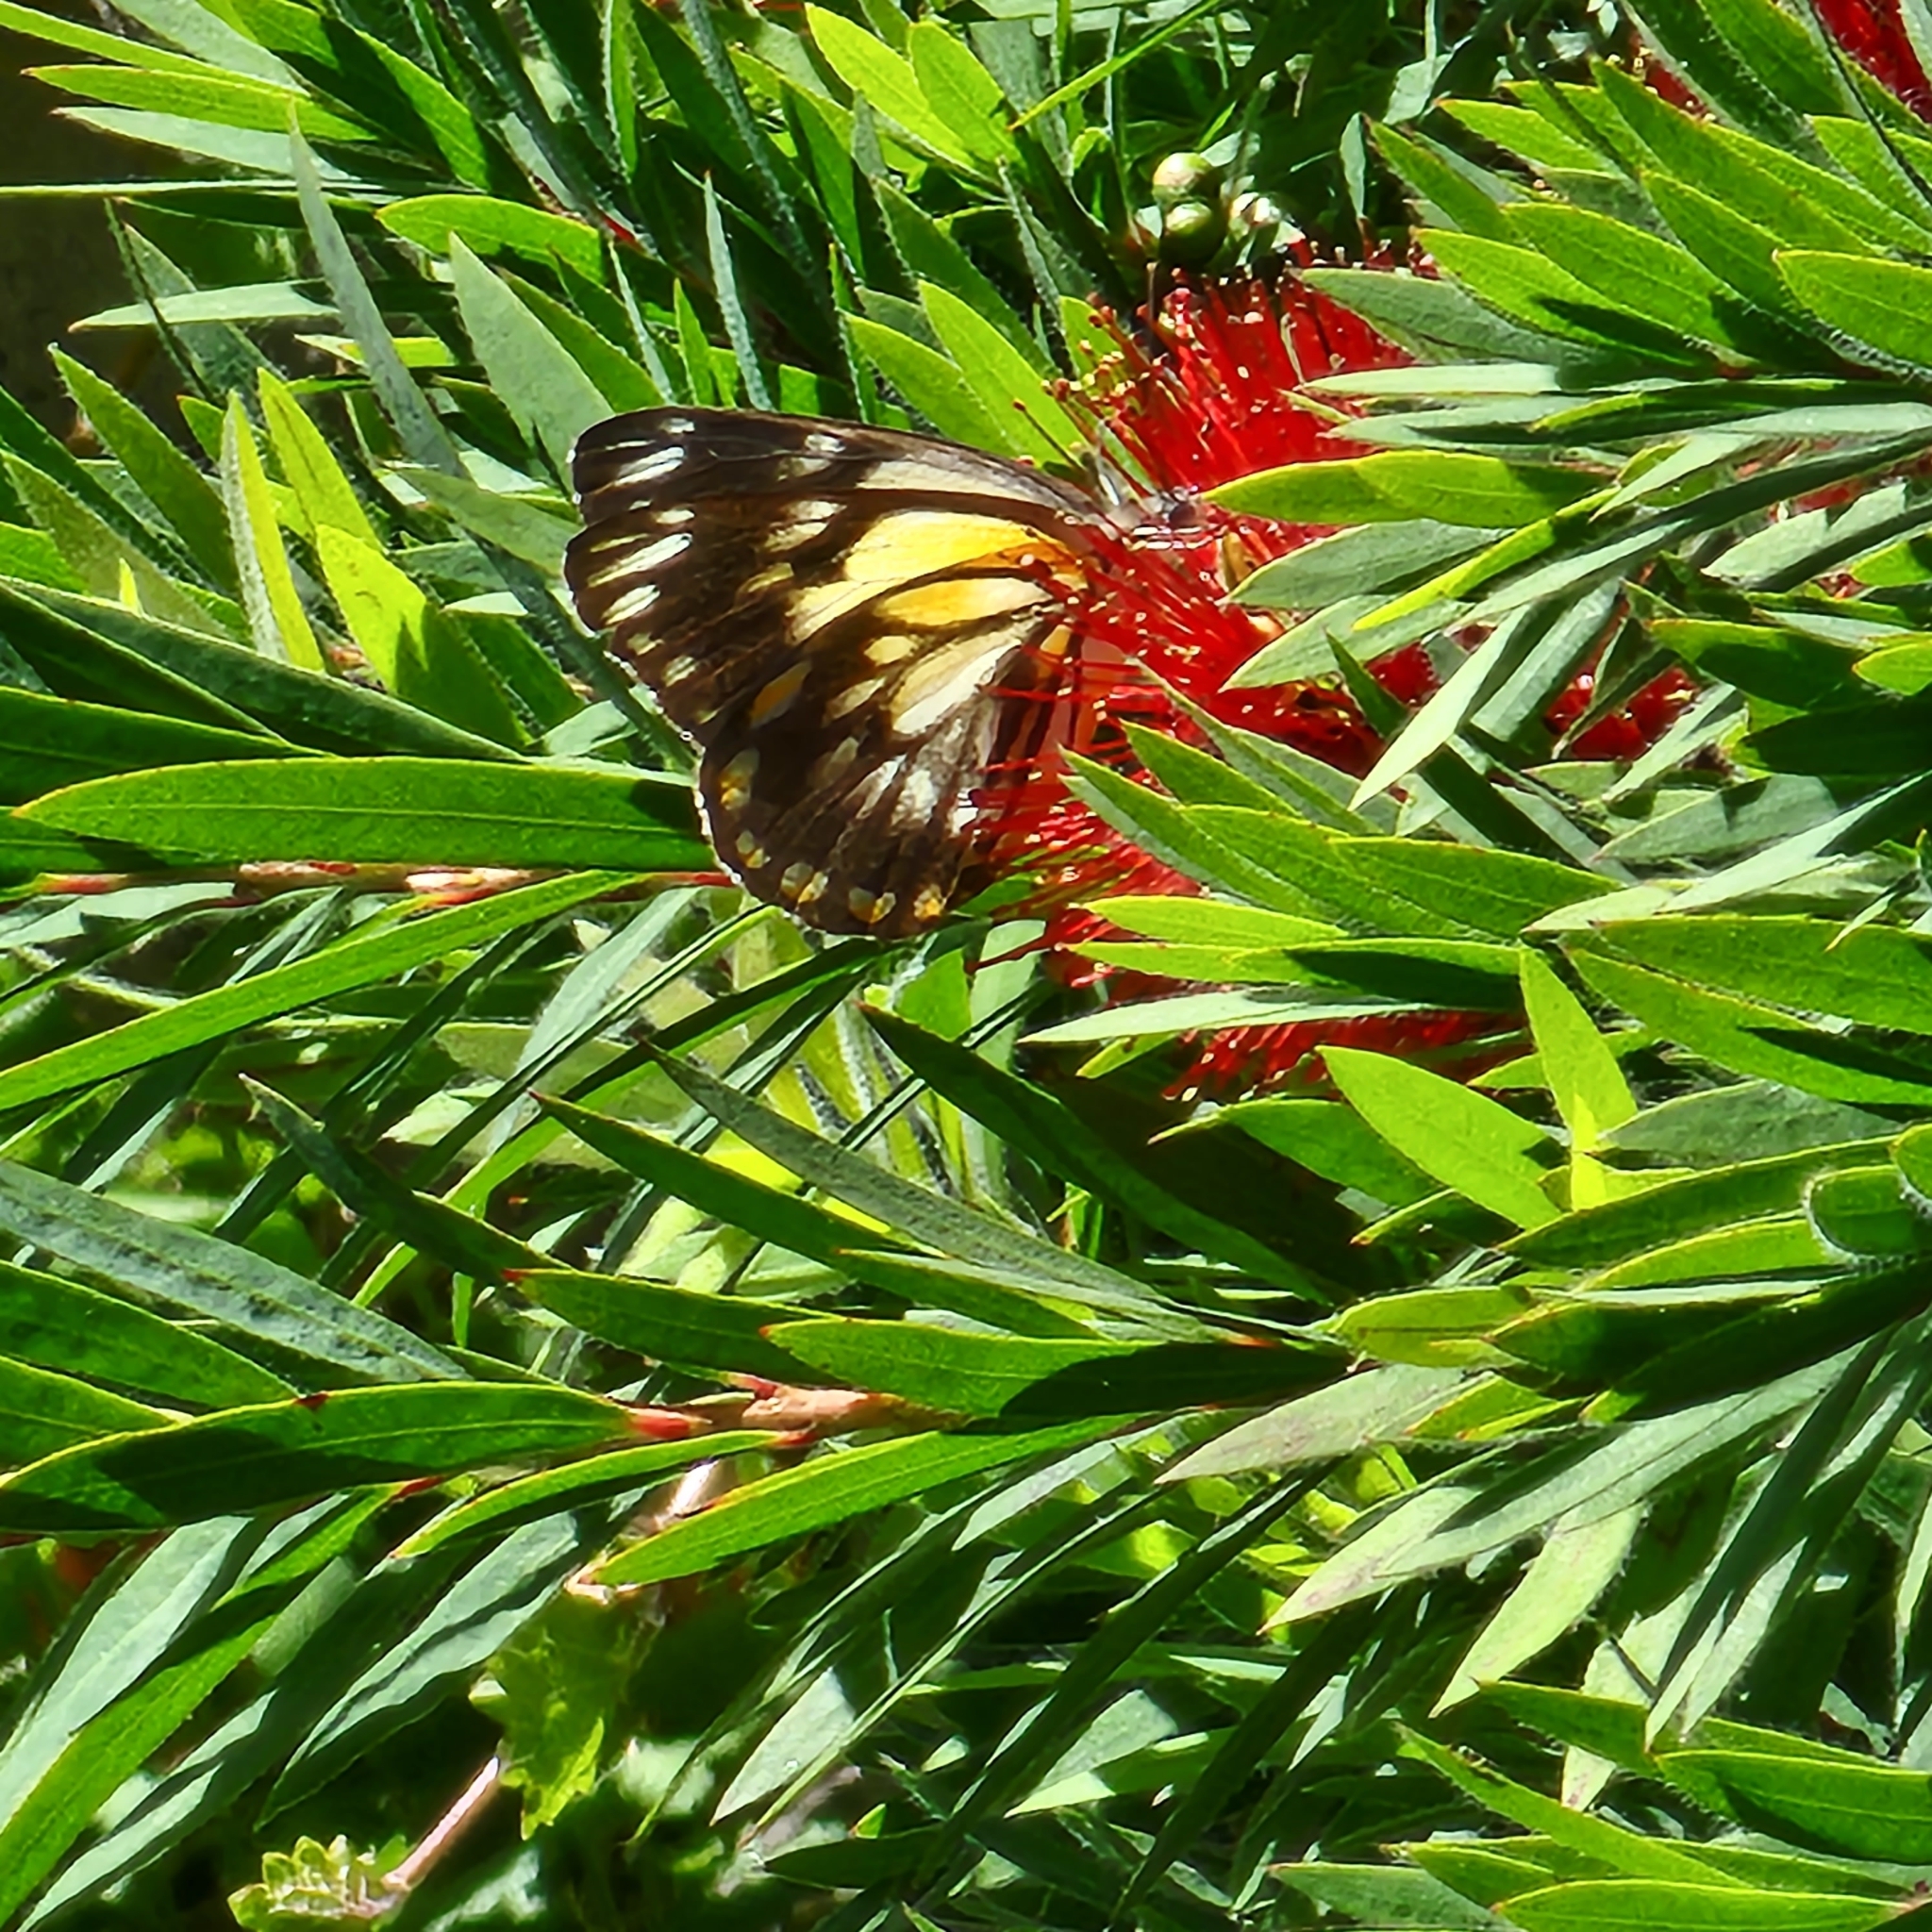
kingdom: Animalia
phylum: Arthropoda
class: Insecta
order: Lepidoptera
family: Pieridae
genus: Belenois
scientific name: Belenois java
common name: Caper white
